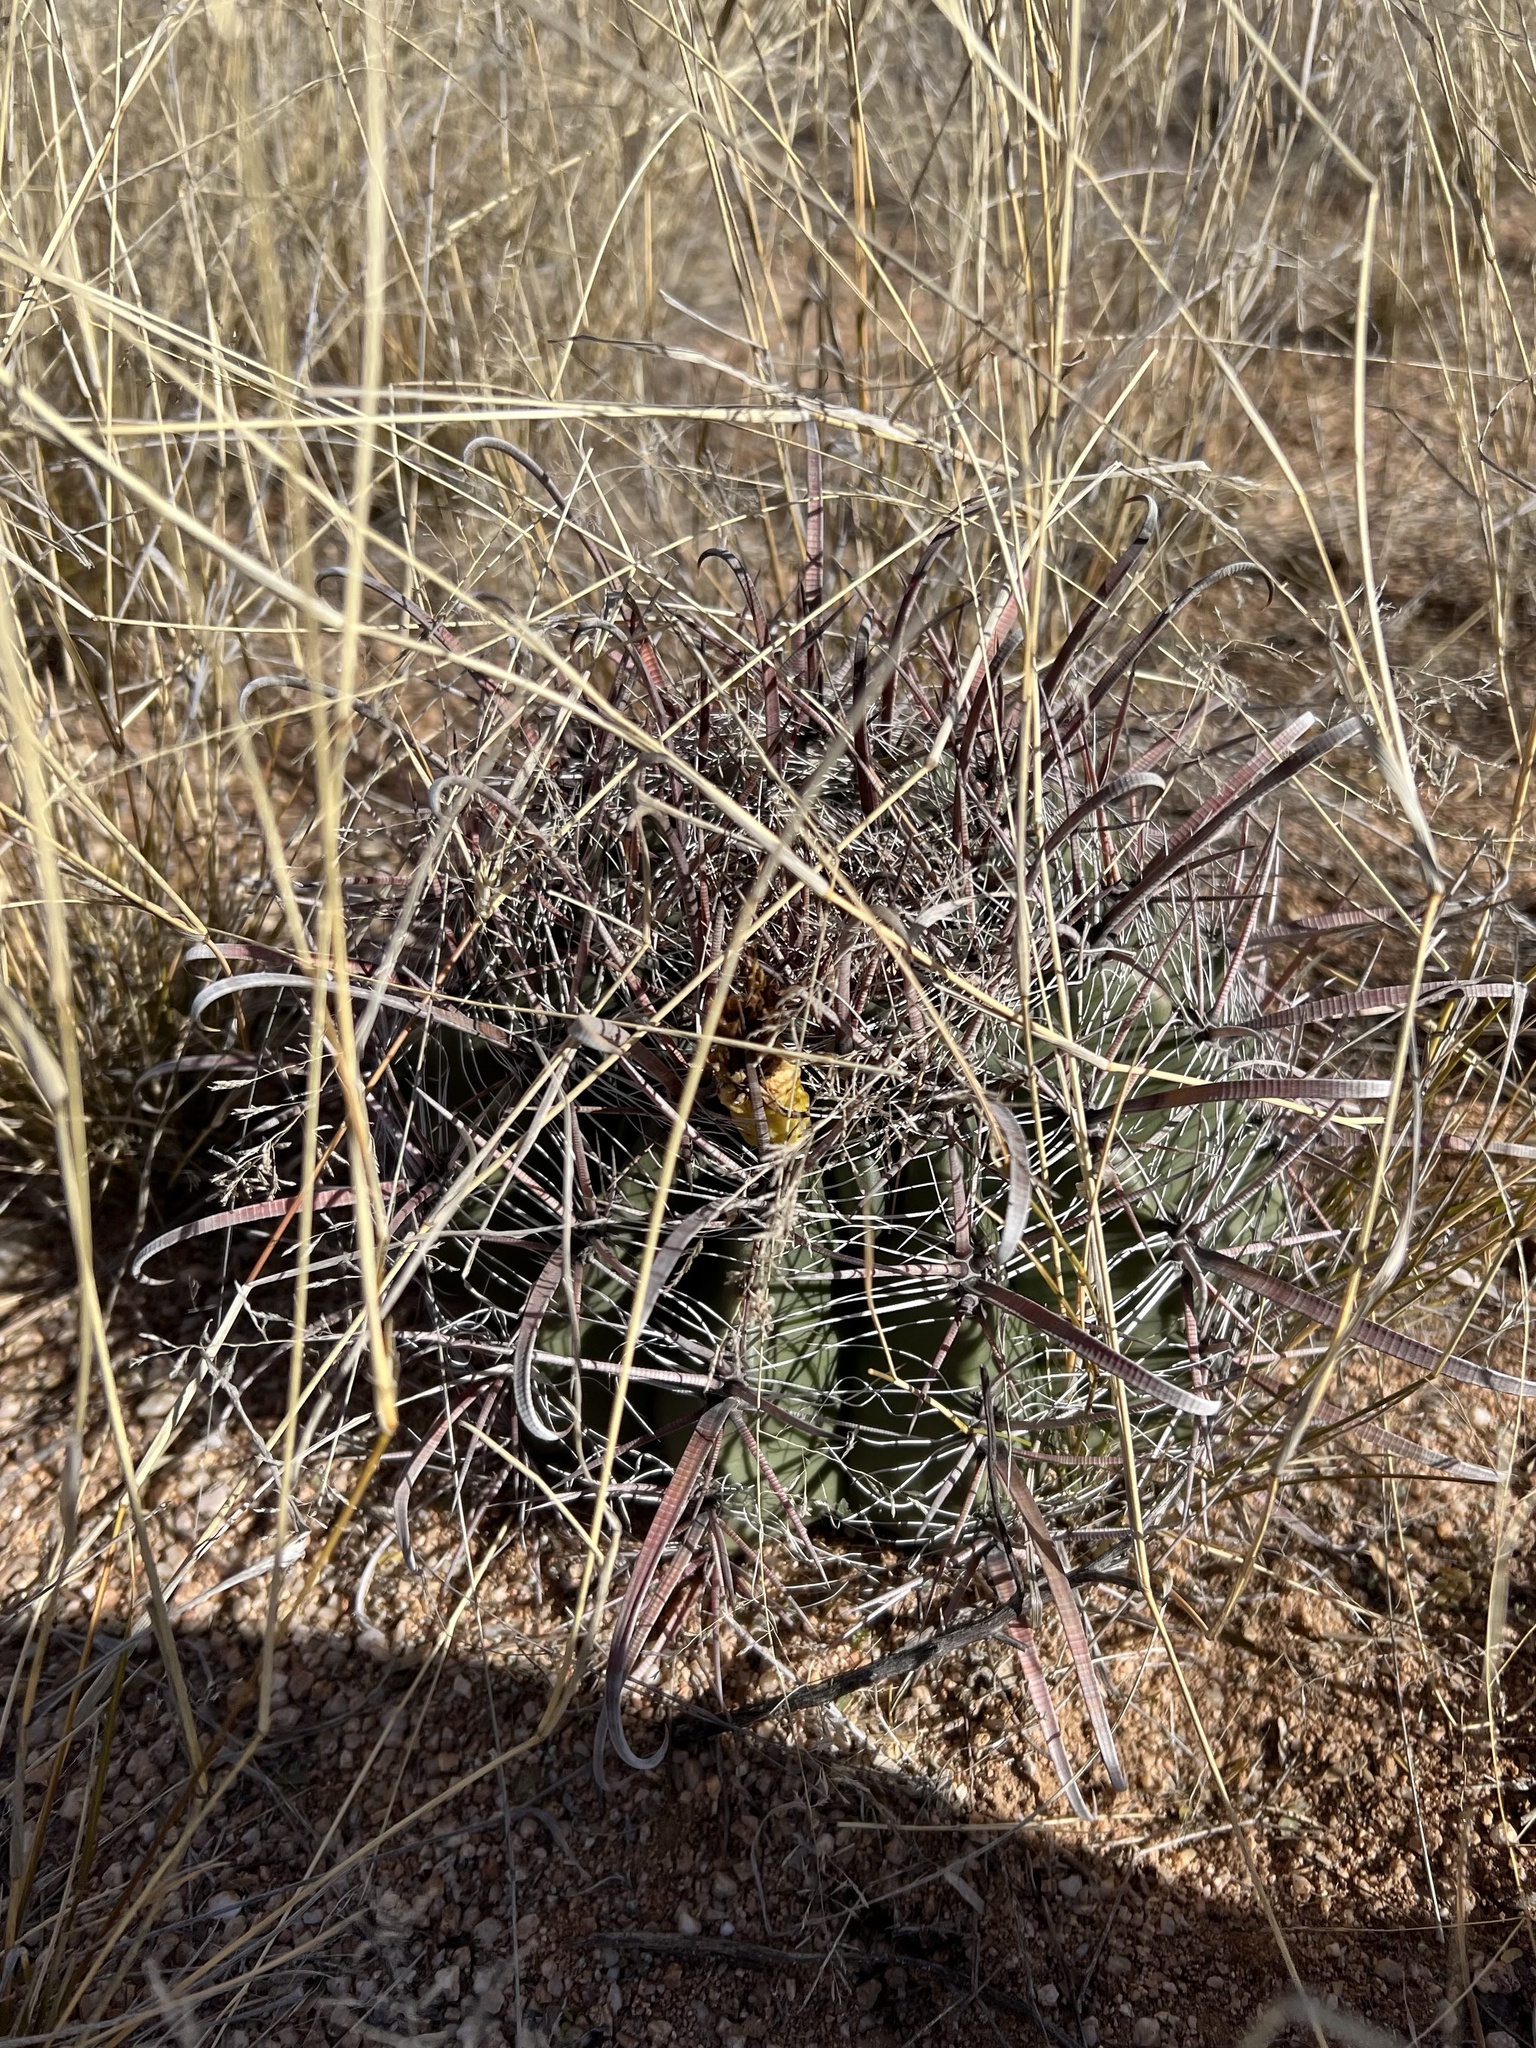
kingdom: Plantae
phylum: Tracheophyta
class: Magnoliopsida
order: Caryophyllales
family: Cactaceae
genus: Ferocactus
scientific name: Ferocactus wislizeni
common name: Candy barrel cactus
